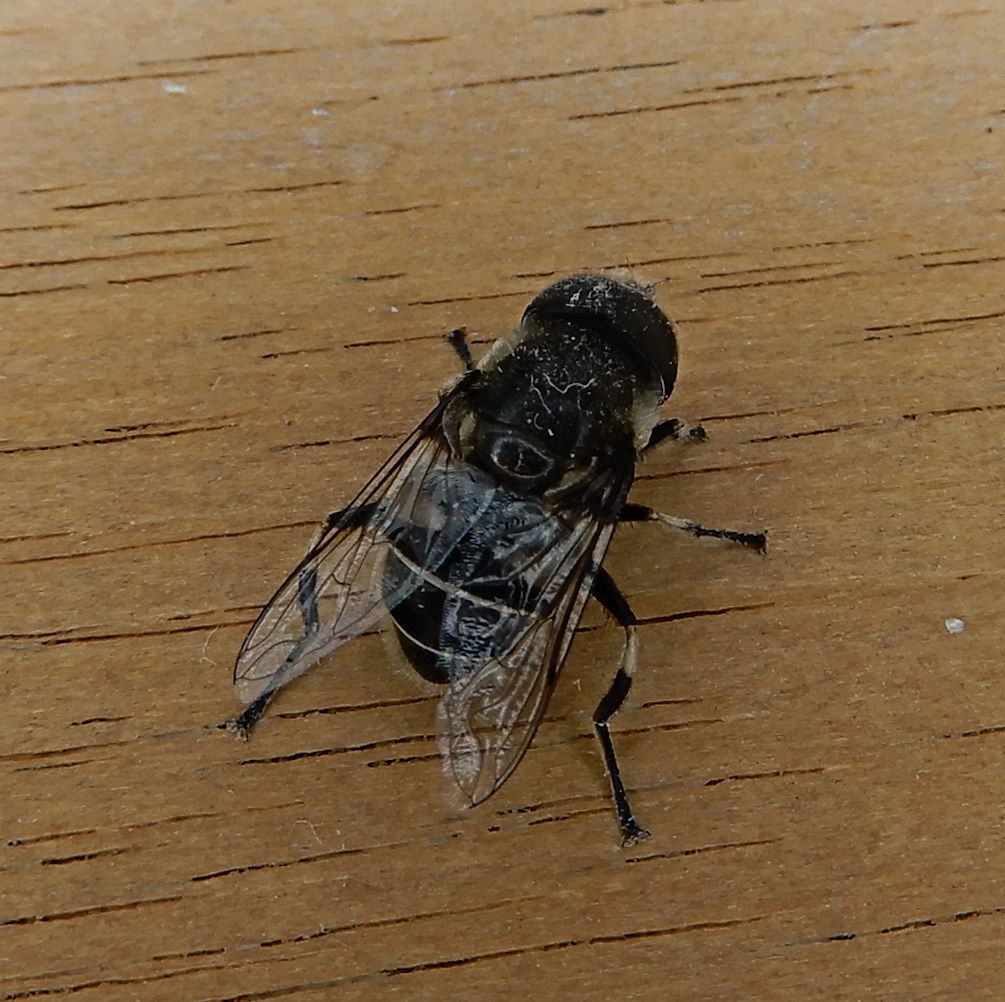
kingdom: Animalia
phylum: Arthropoda
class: Insecta
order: Diptera
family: Syrphidae
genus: Eristalis
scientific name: Eristalis dimidiata
